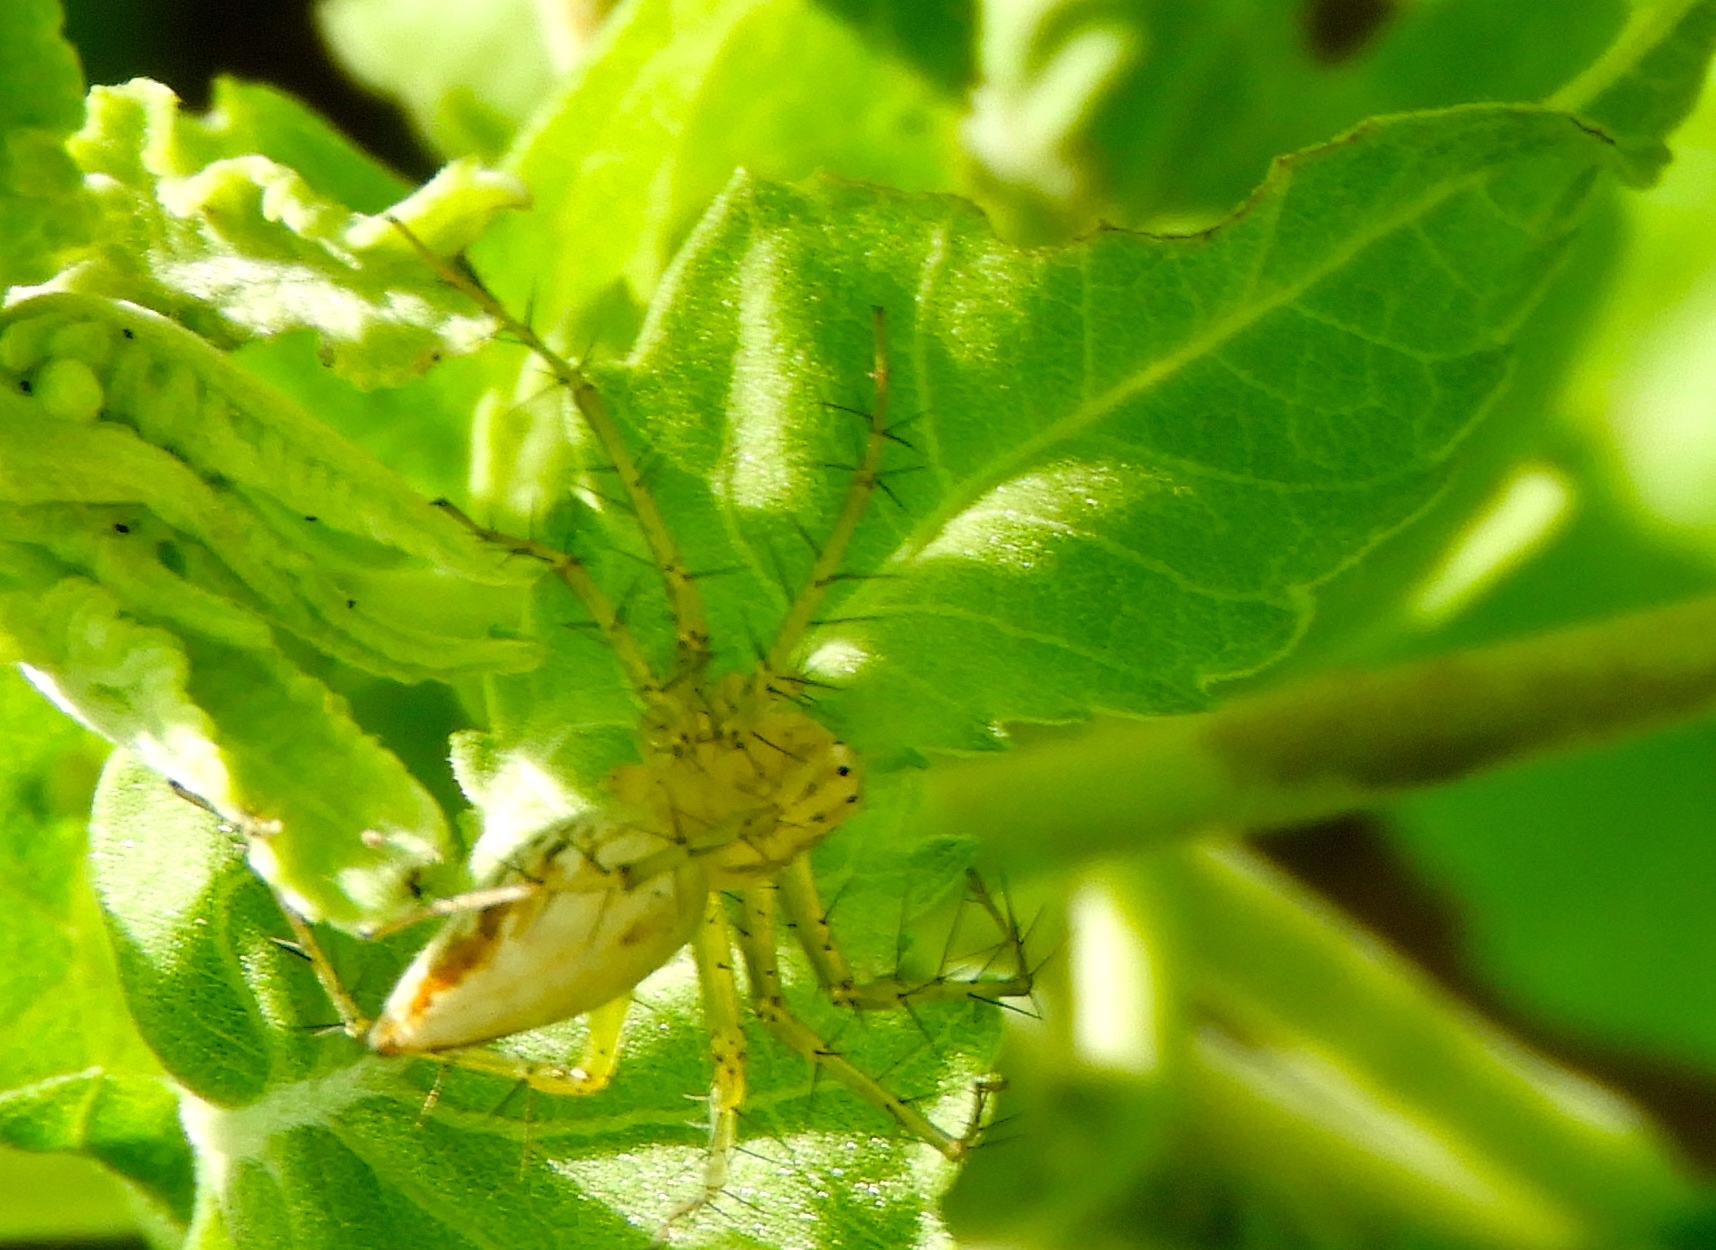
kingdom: Animalia
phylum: Arthropoda
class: Arachnida
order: Araneae
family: Oxyopidae
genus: Oxyopes
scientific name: Oxyopes
